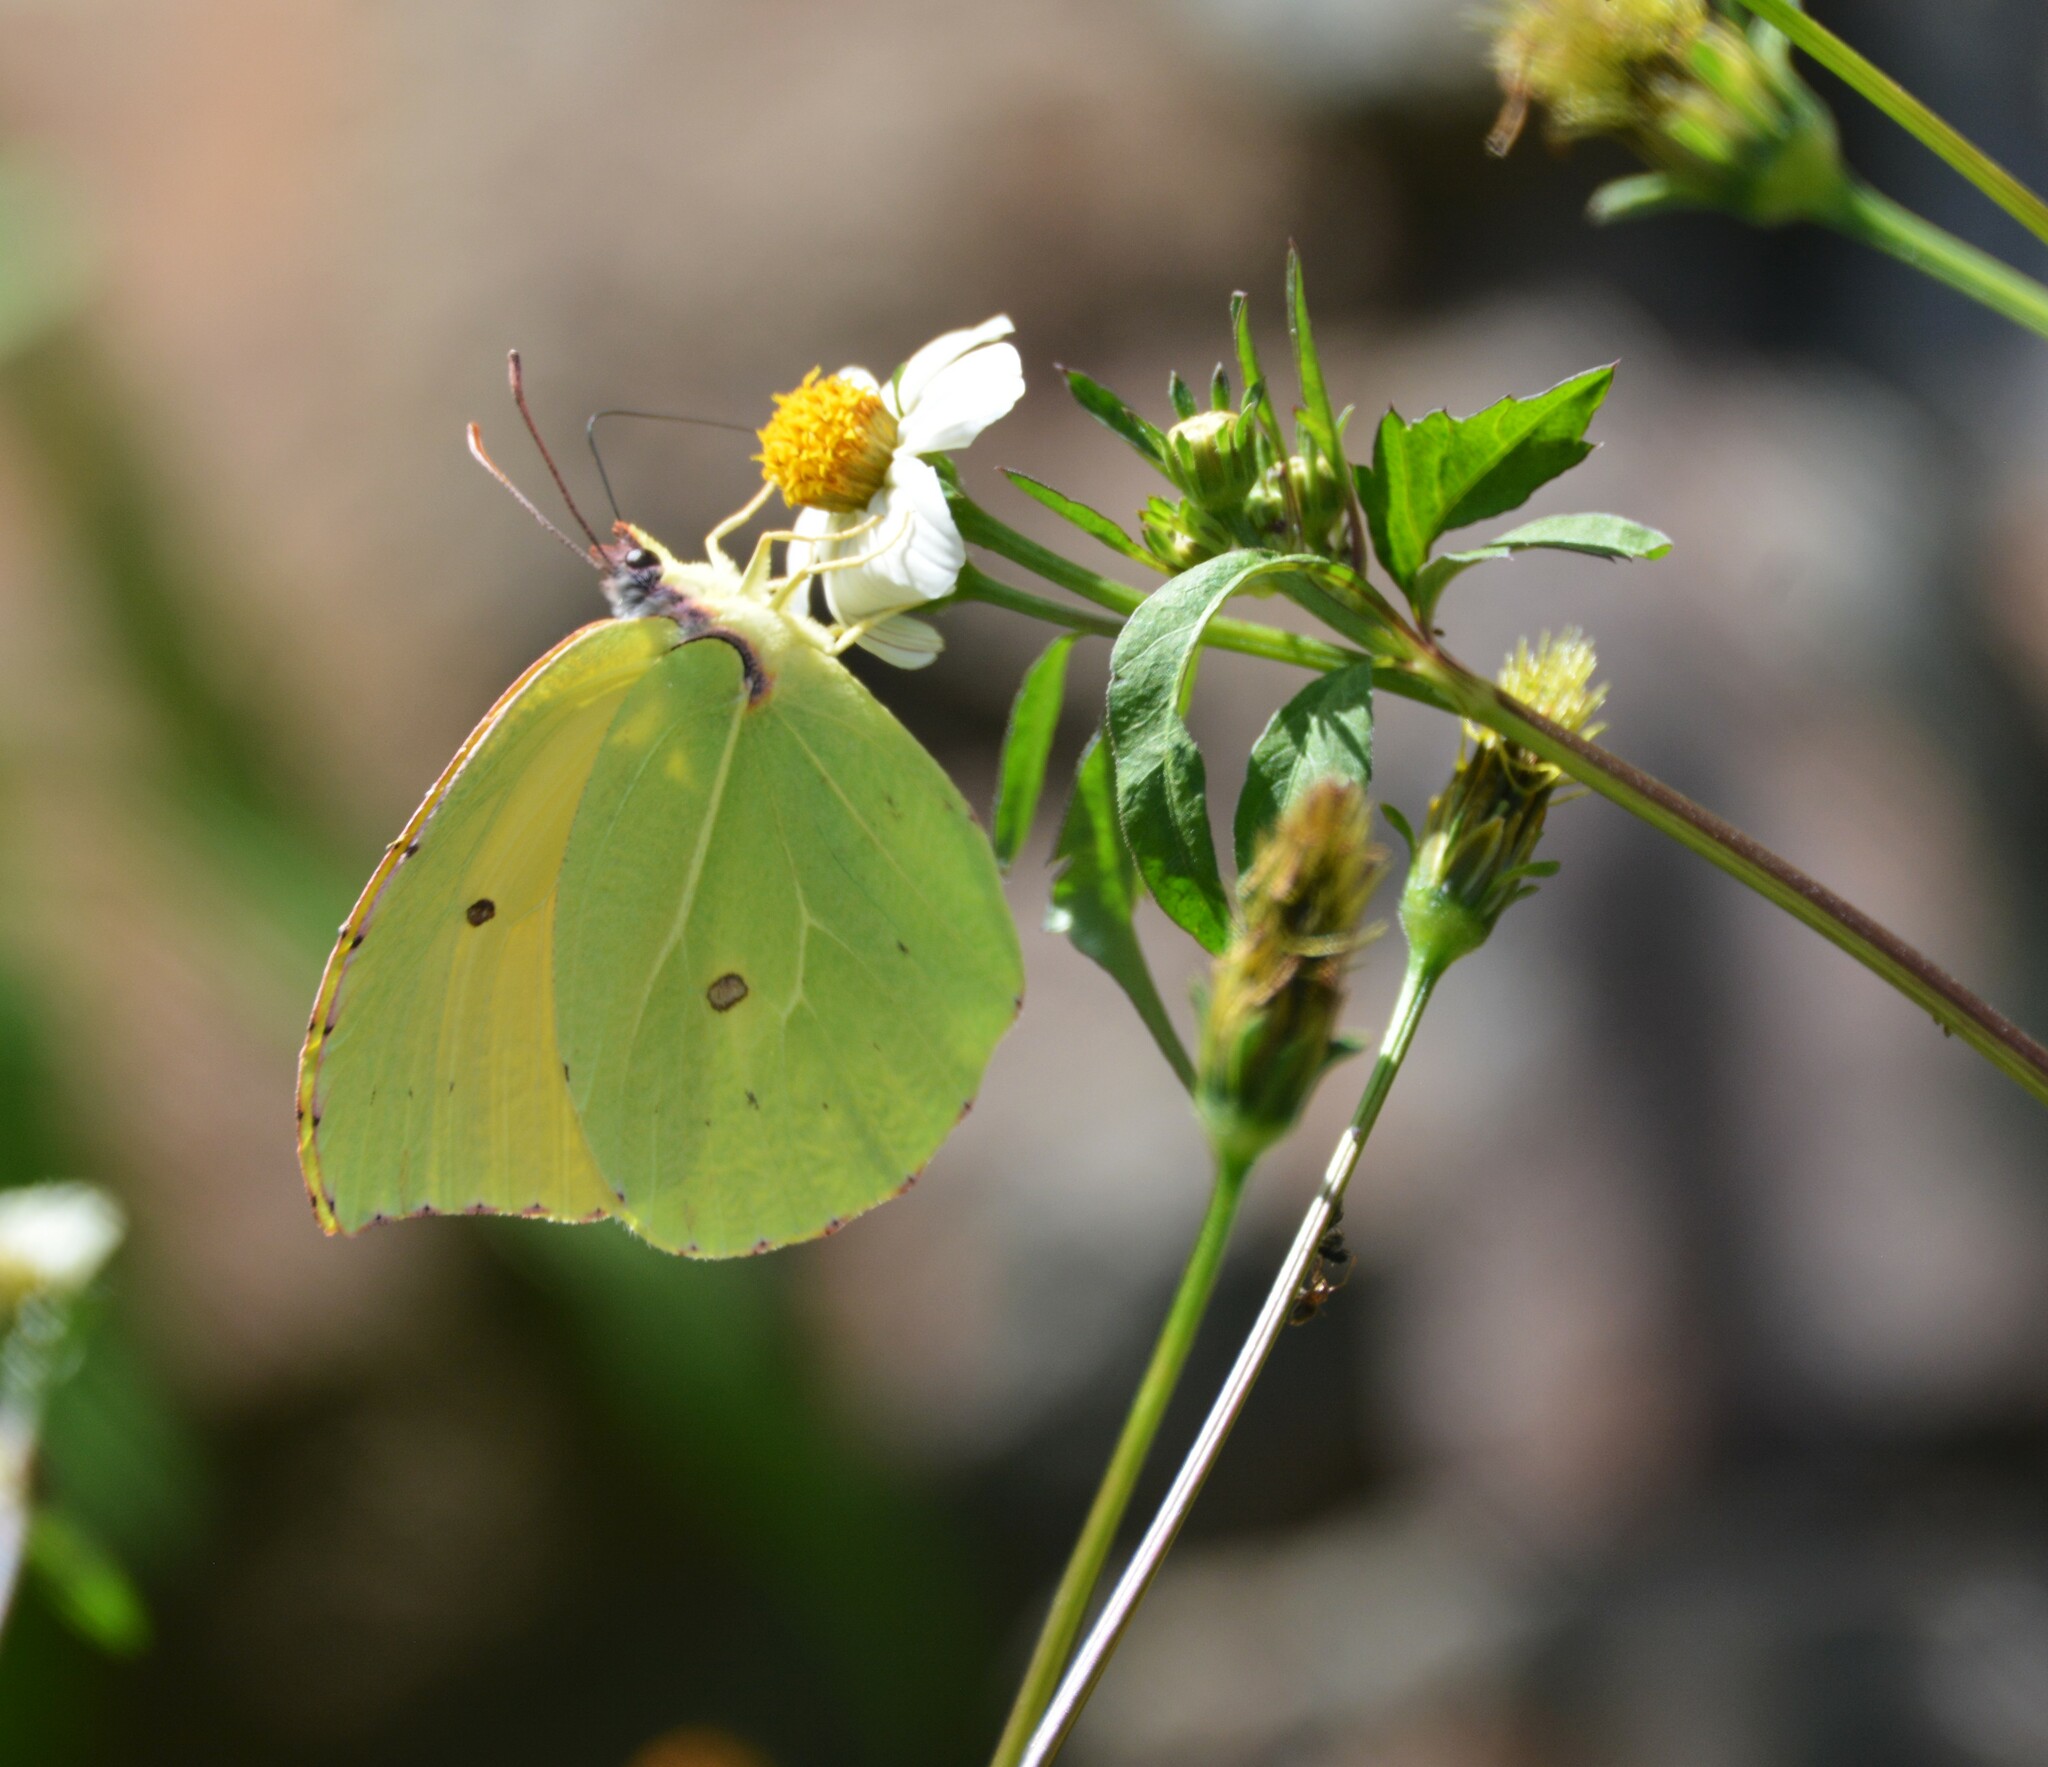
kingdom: Animalia
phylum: Arthropoda
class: Insecta
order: Lepidoptera
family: Pieridae
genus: Gonepteryx
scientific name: Gonepteryx cleobule
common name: Canary brimstone
